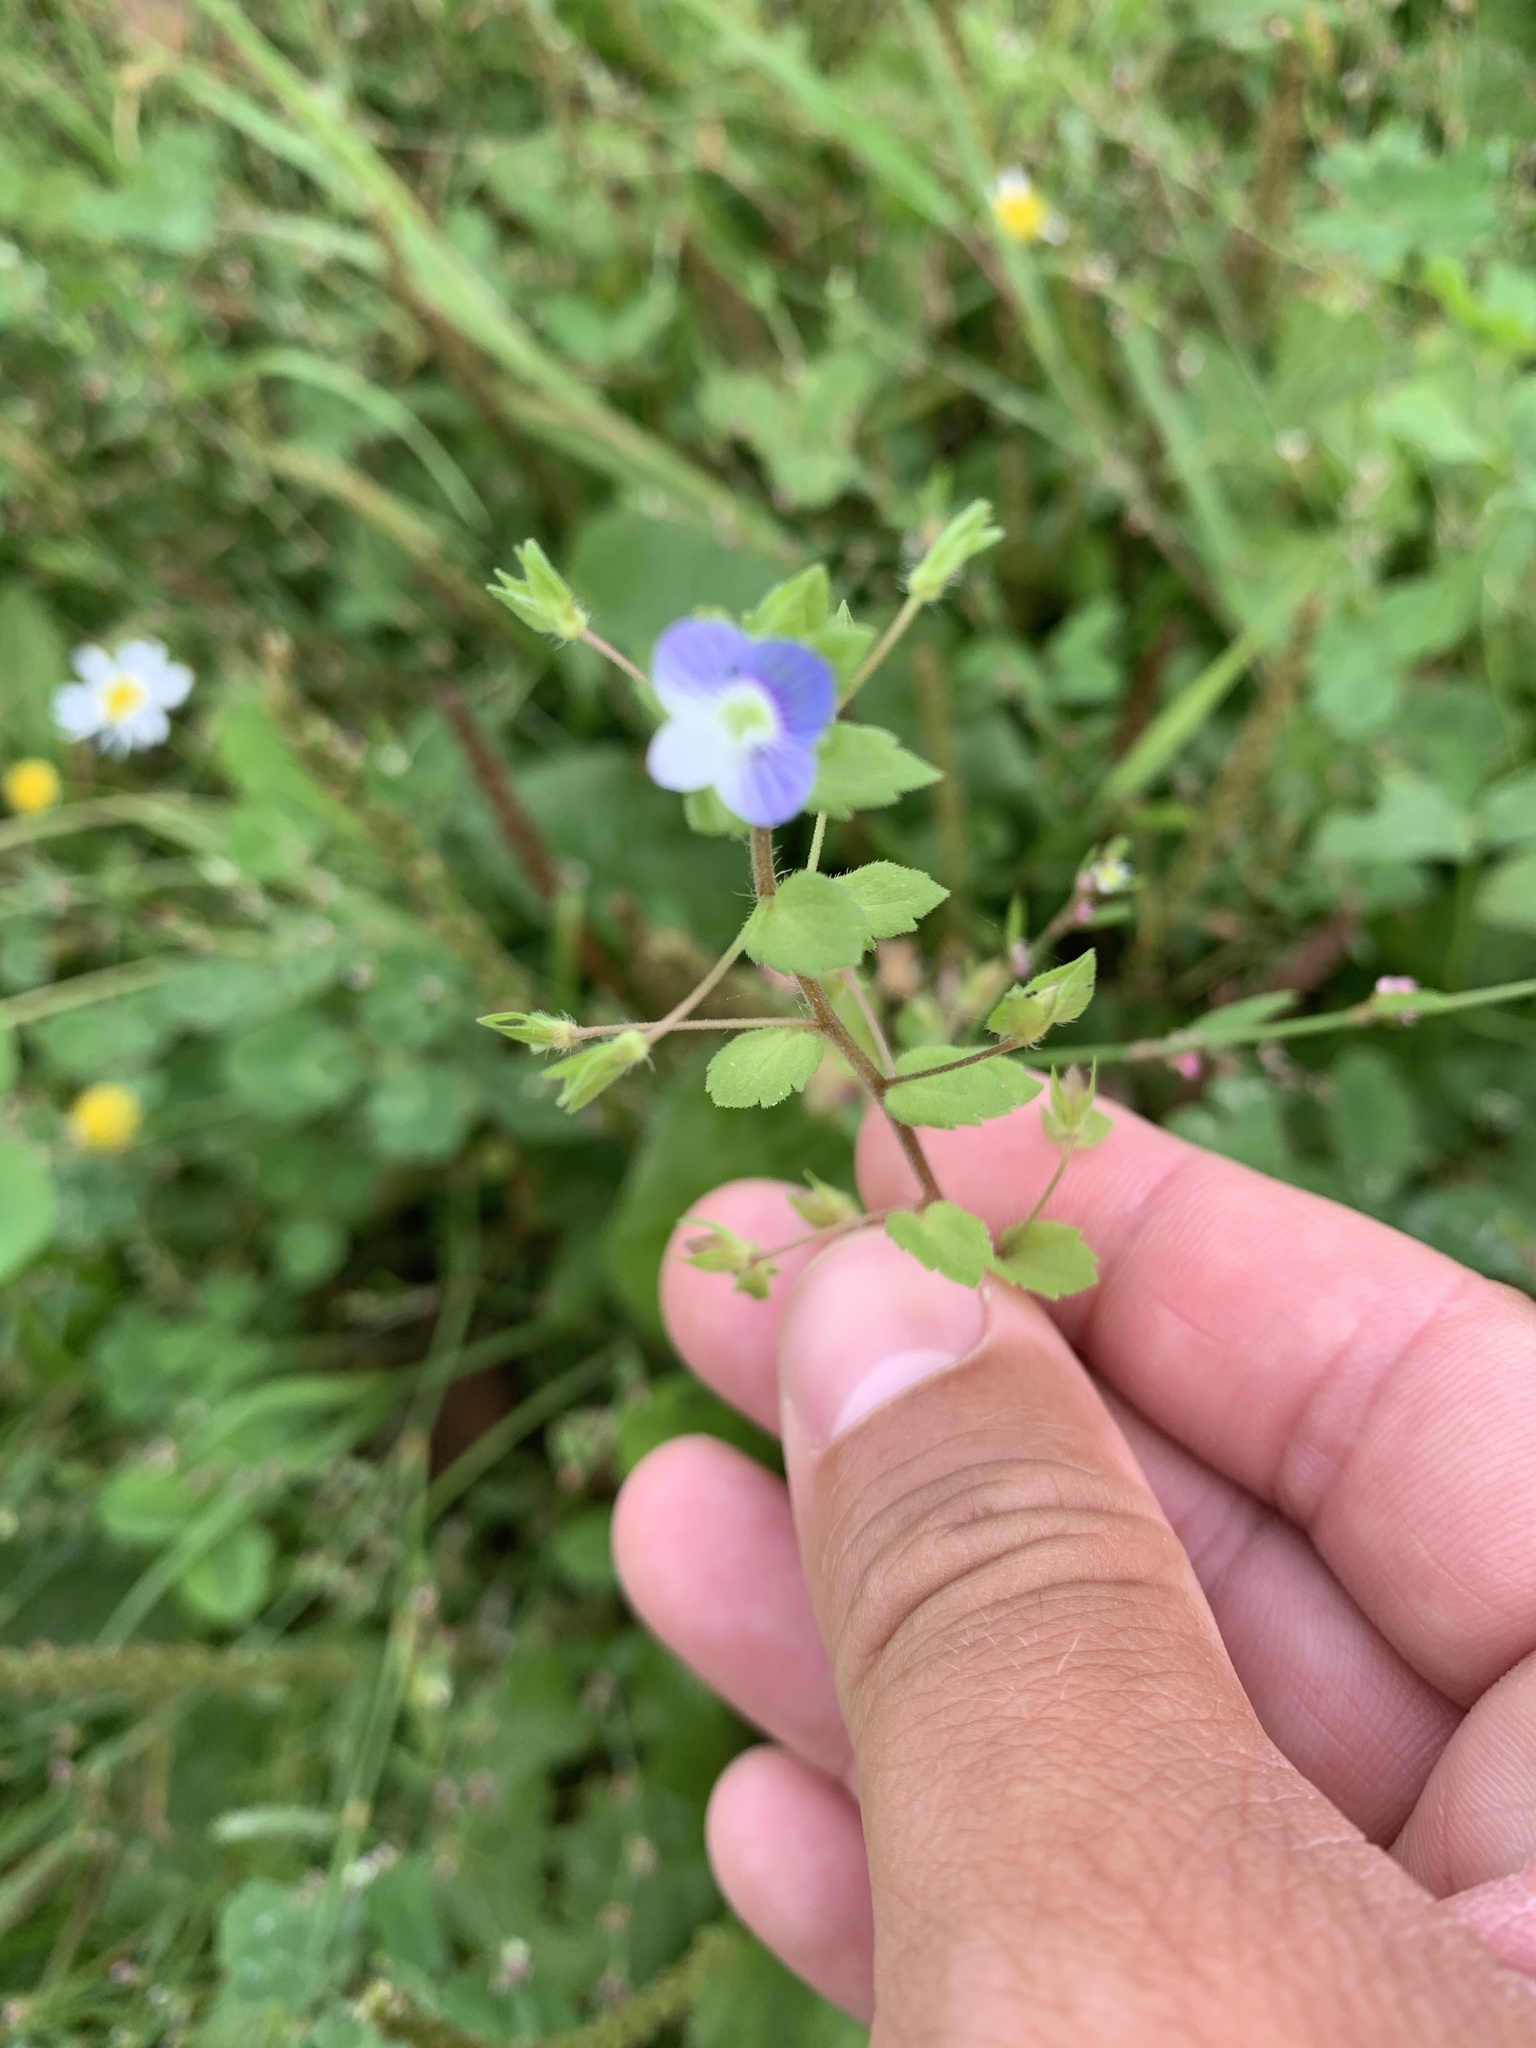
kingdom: Plantae
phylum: Tracheophyta
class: Magnoliopsida
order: Lamiales
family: Plantaginaceae
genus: Veronica
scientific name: Veronica persica
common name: Common field-speedwell
